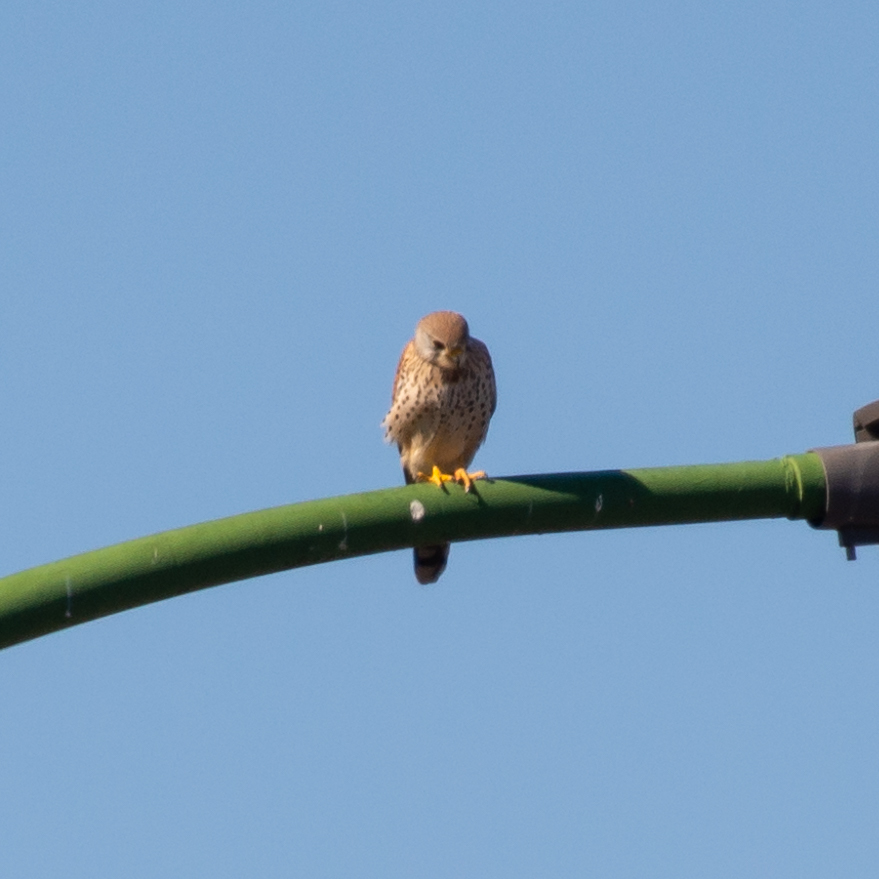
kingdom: Animalia
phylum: Chordata
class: Aves
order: Falconiformes
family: Falconidae
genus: Falco
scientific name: Falco tinnunculus
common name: Common kestrel
